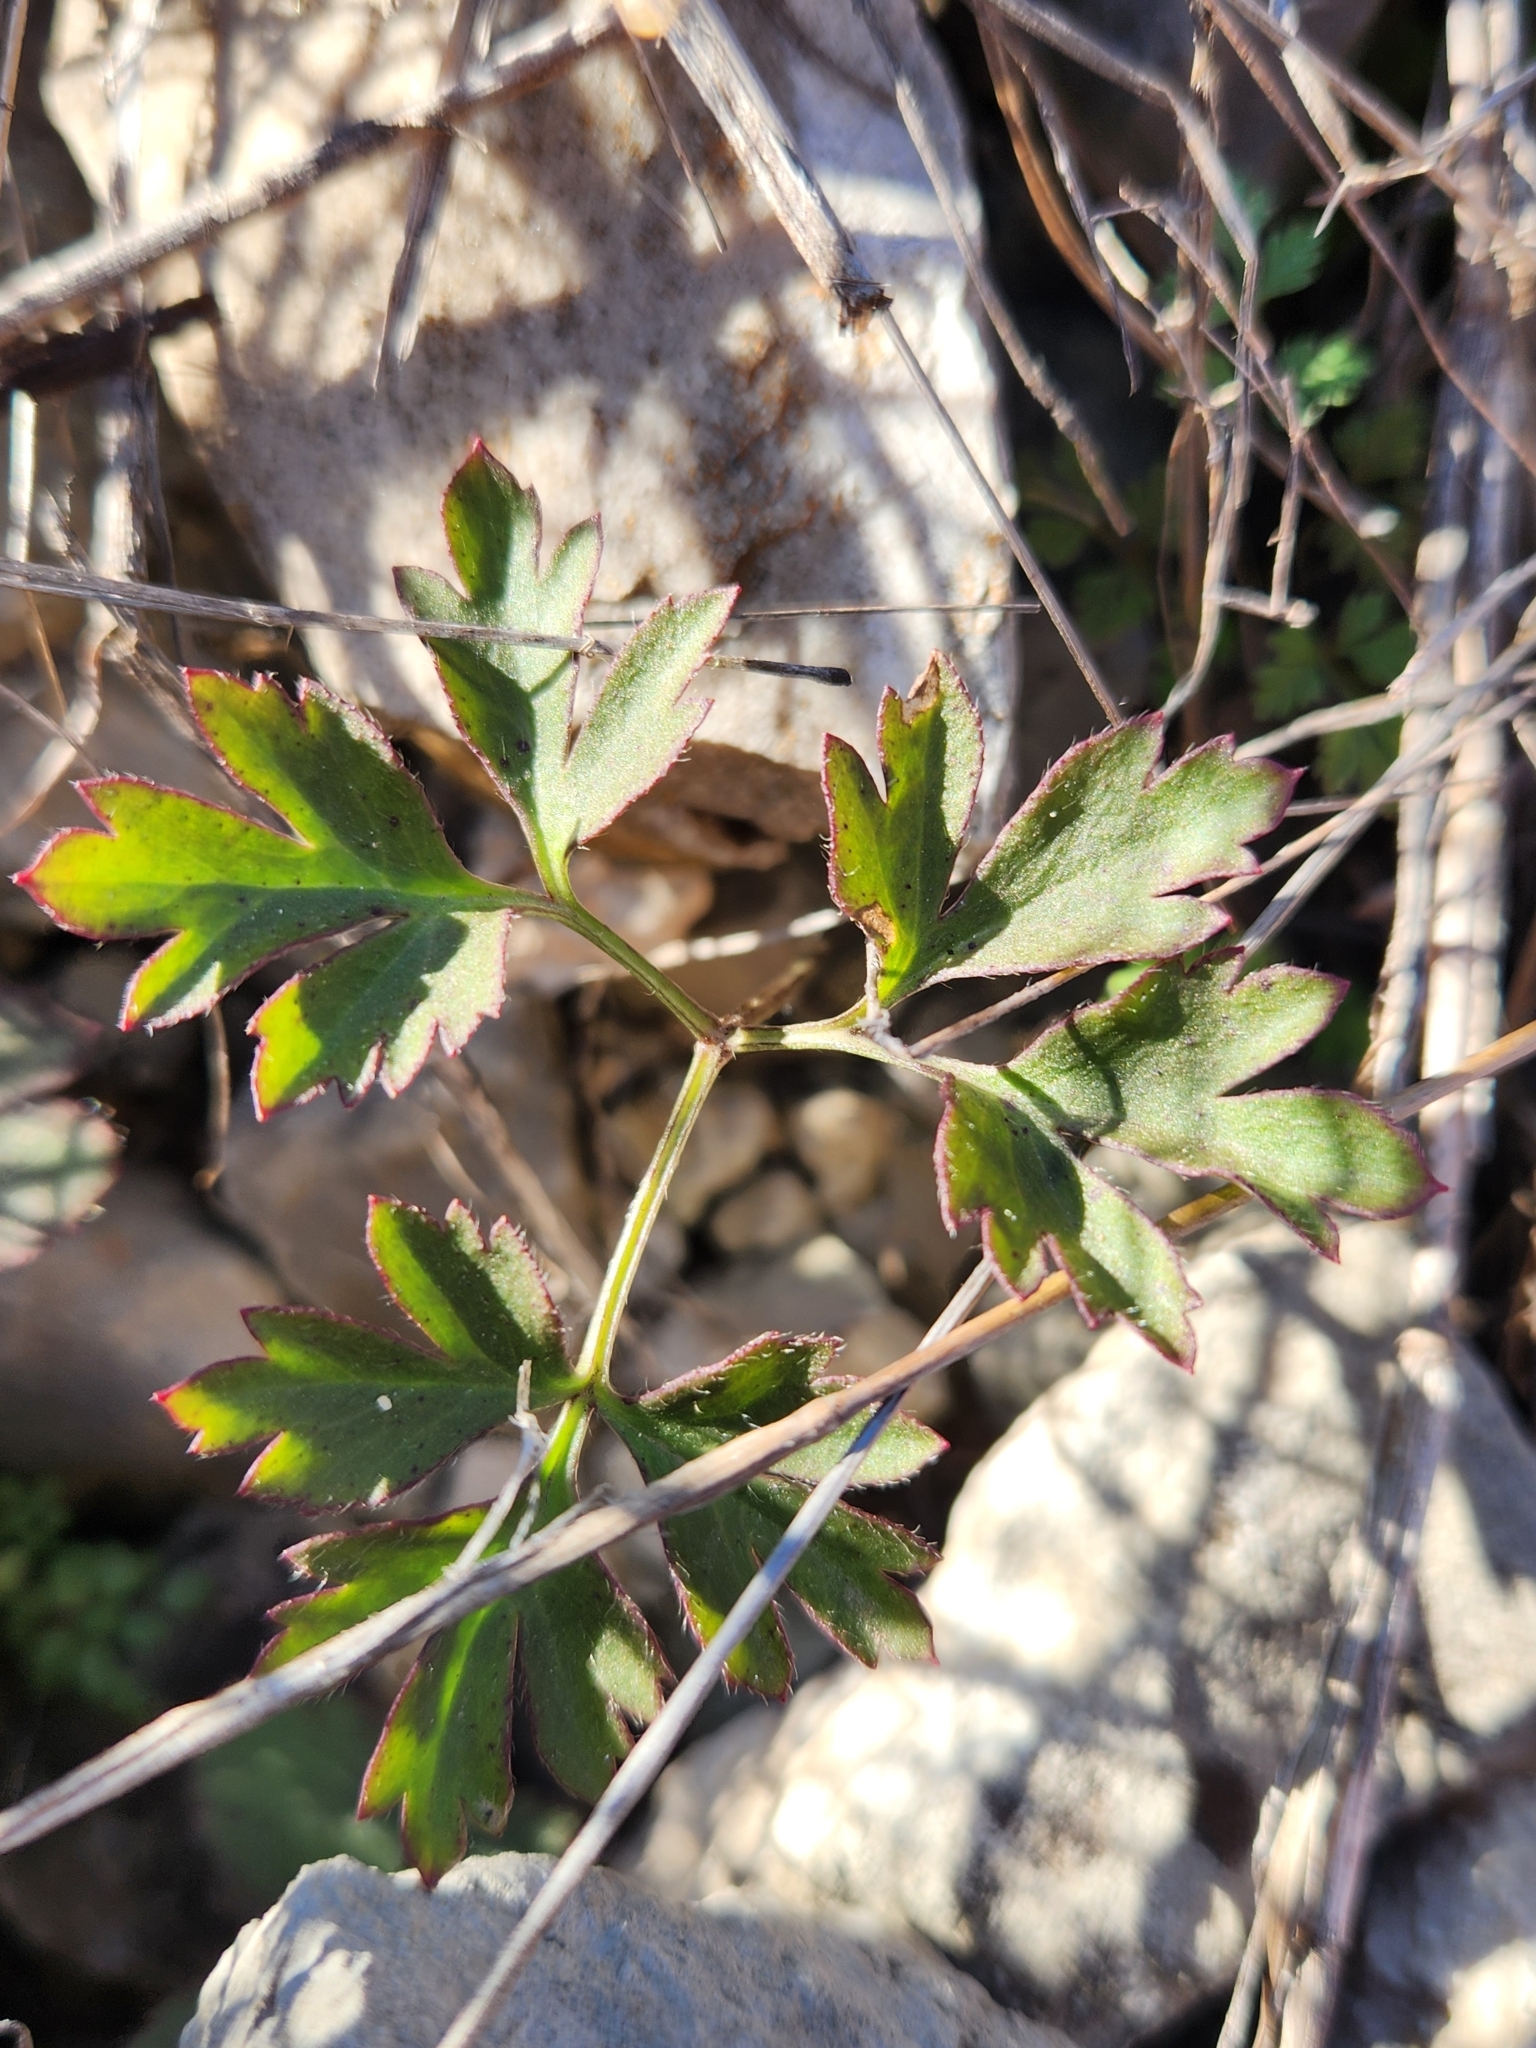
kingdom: Plantae
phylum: Tracheophyta
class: Magnoliopsida
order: Ranunculales
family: Ranunculaceae
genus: Anemone
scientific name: Anemone tuberosa
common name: Desert anemone
